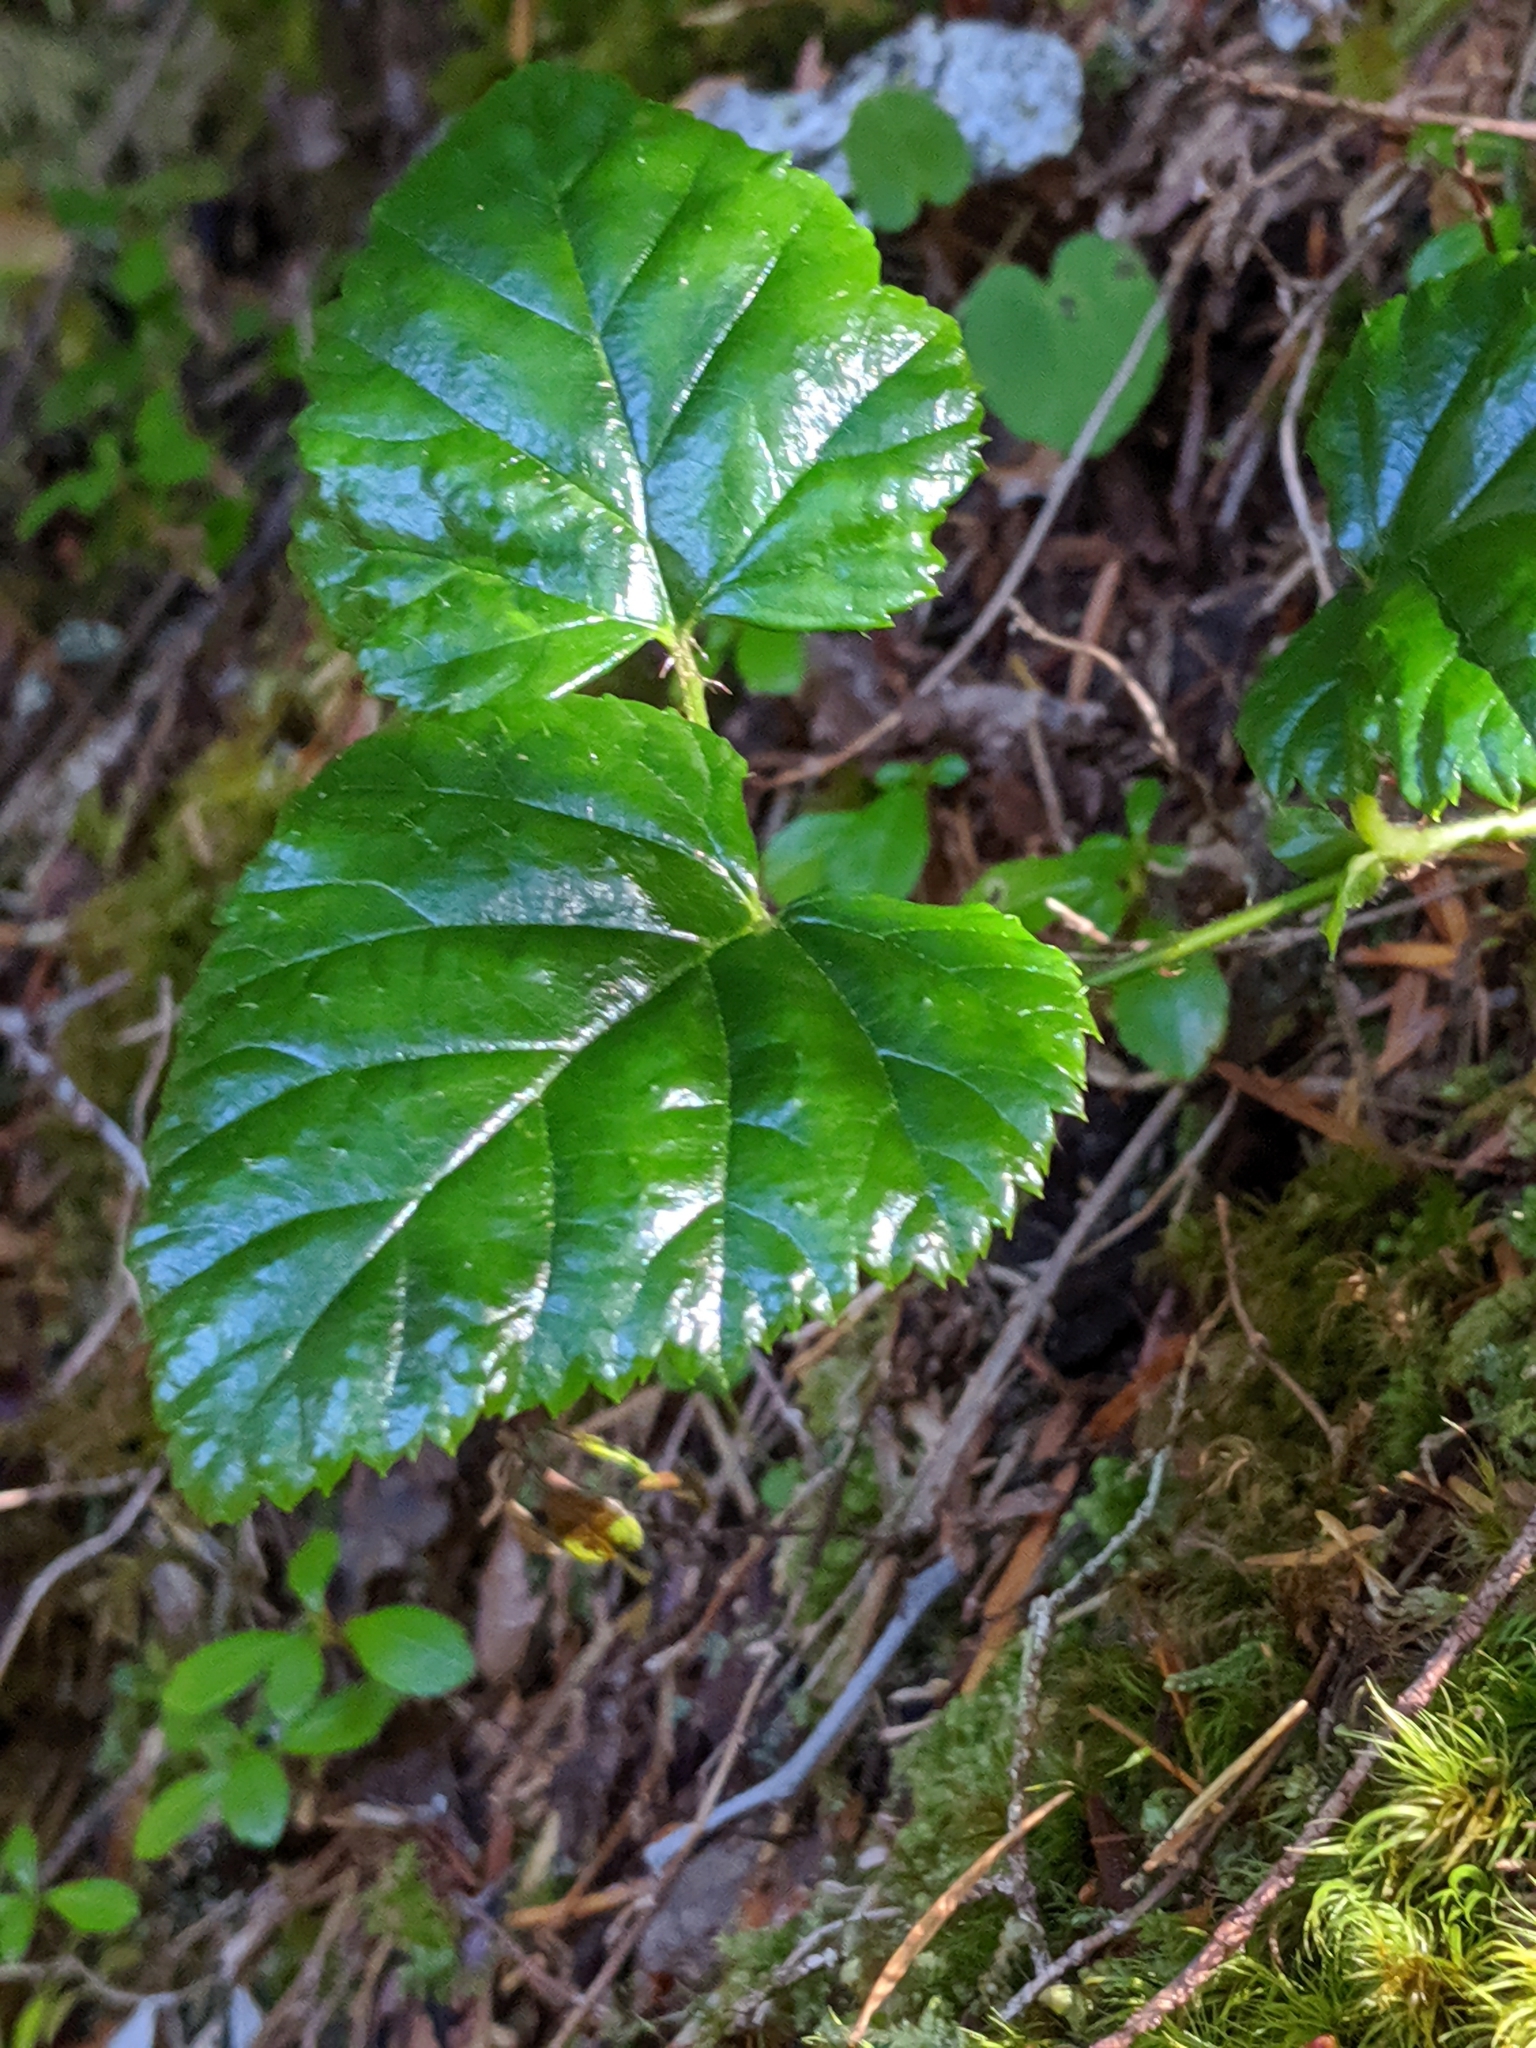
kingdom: Plantae
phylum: Tracheophyta
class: Magnoliopsida
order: Rosales
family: Rosaceae
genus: Rubus
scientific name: Rubus nivalis
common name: Dwarf snow bramble
